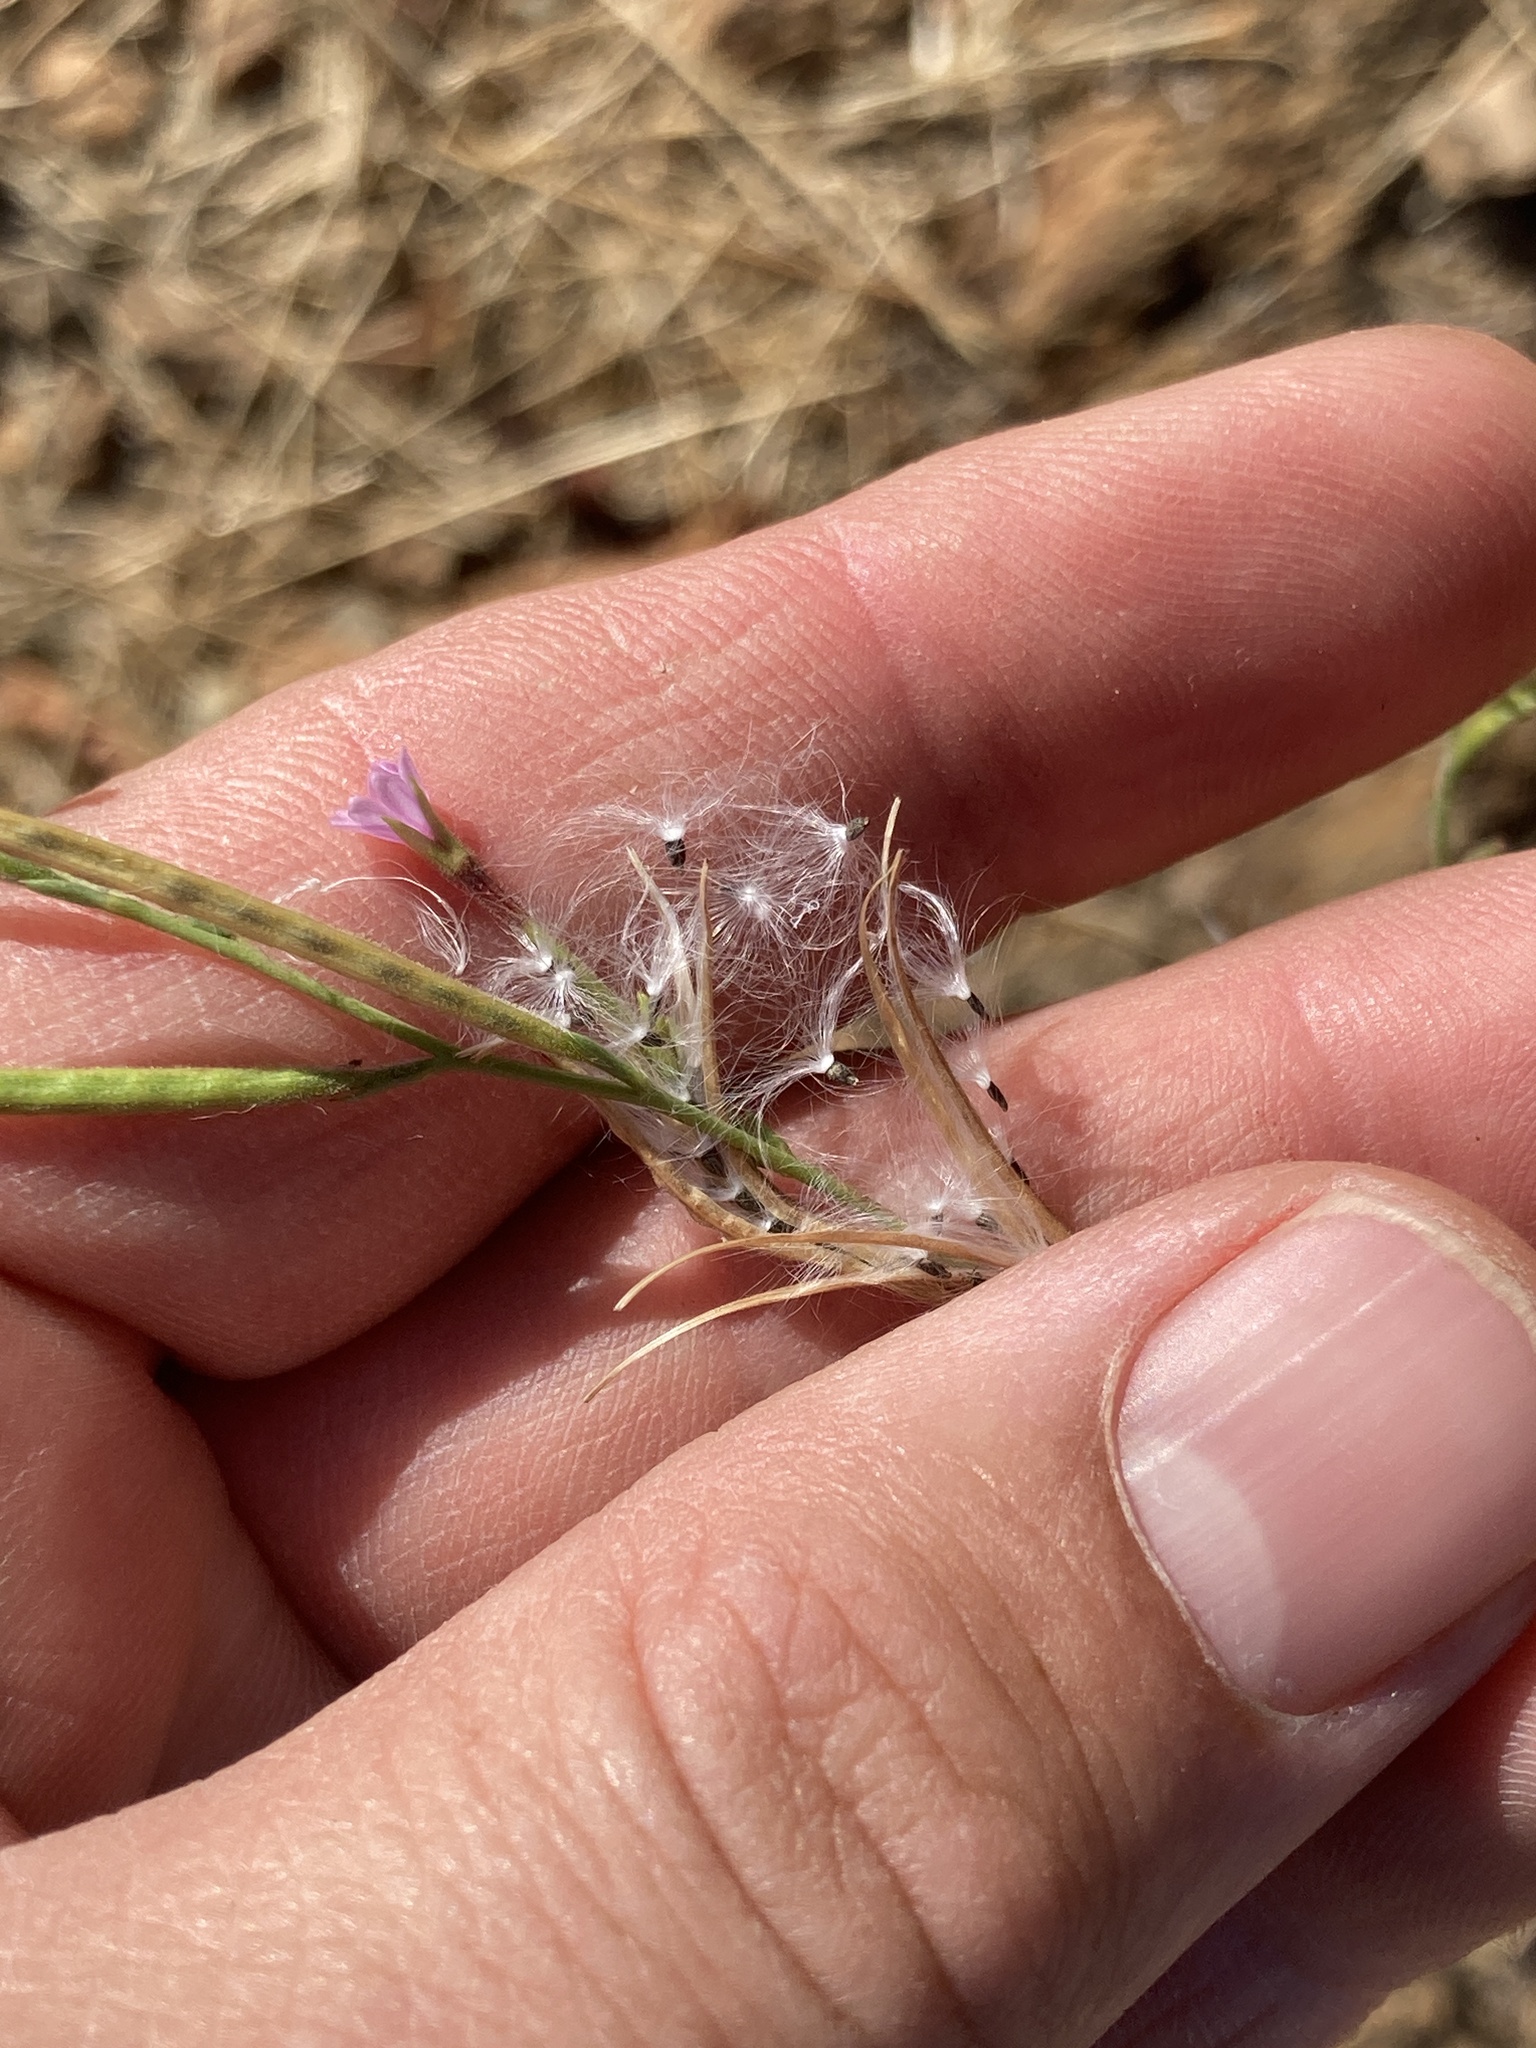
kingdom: Plantae
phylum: Tracheophyta
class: Magnoliopsida
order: Myrtales
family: Onagraceae
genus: Epilobium
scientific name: Epilobium brachycarpum
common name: Annual willowherb
